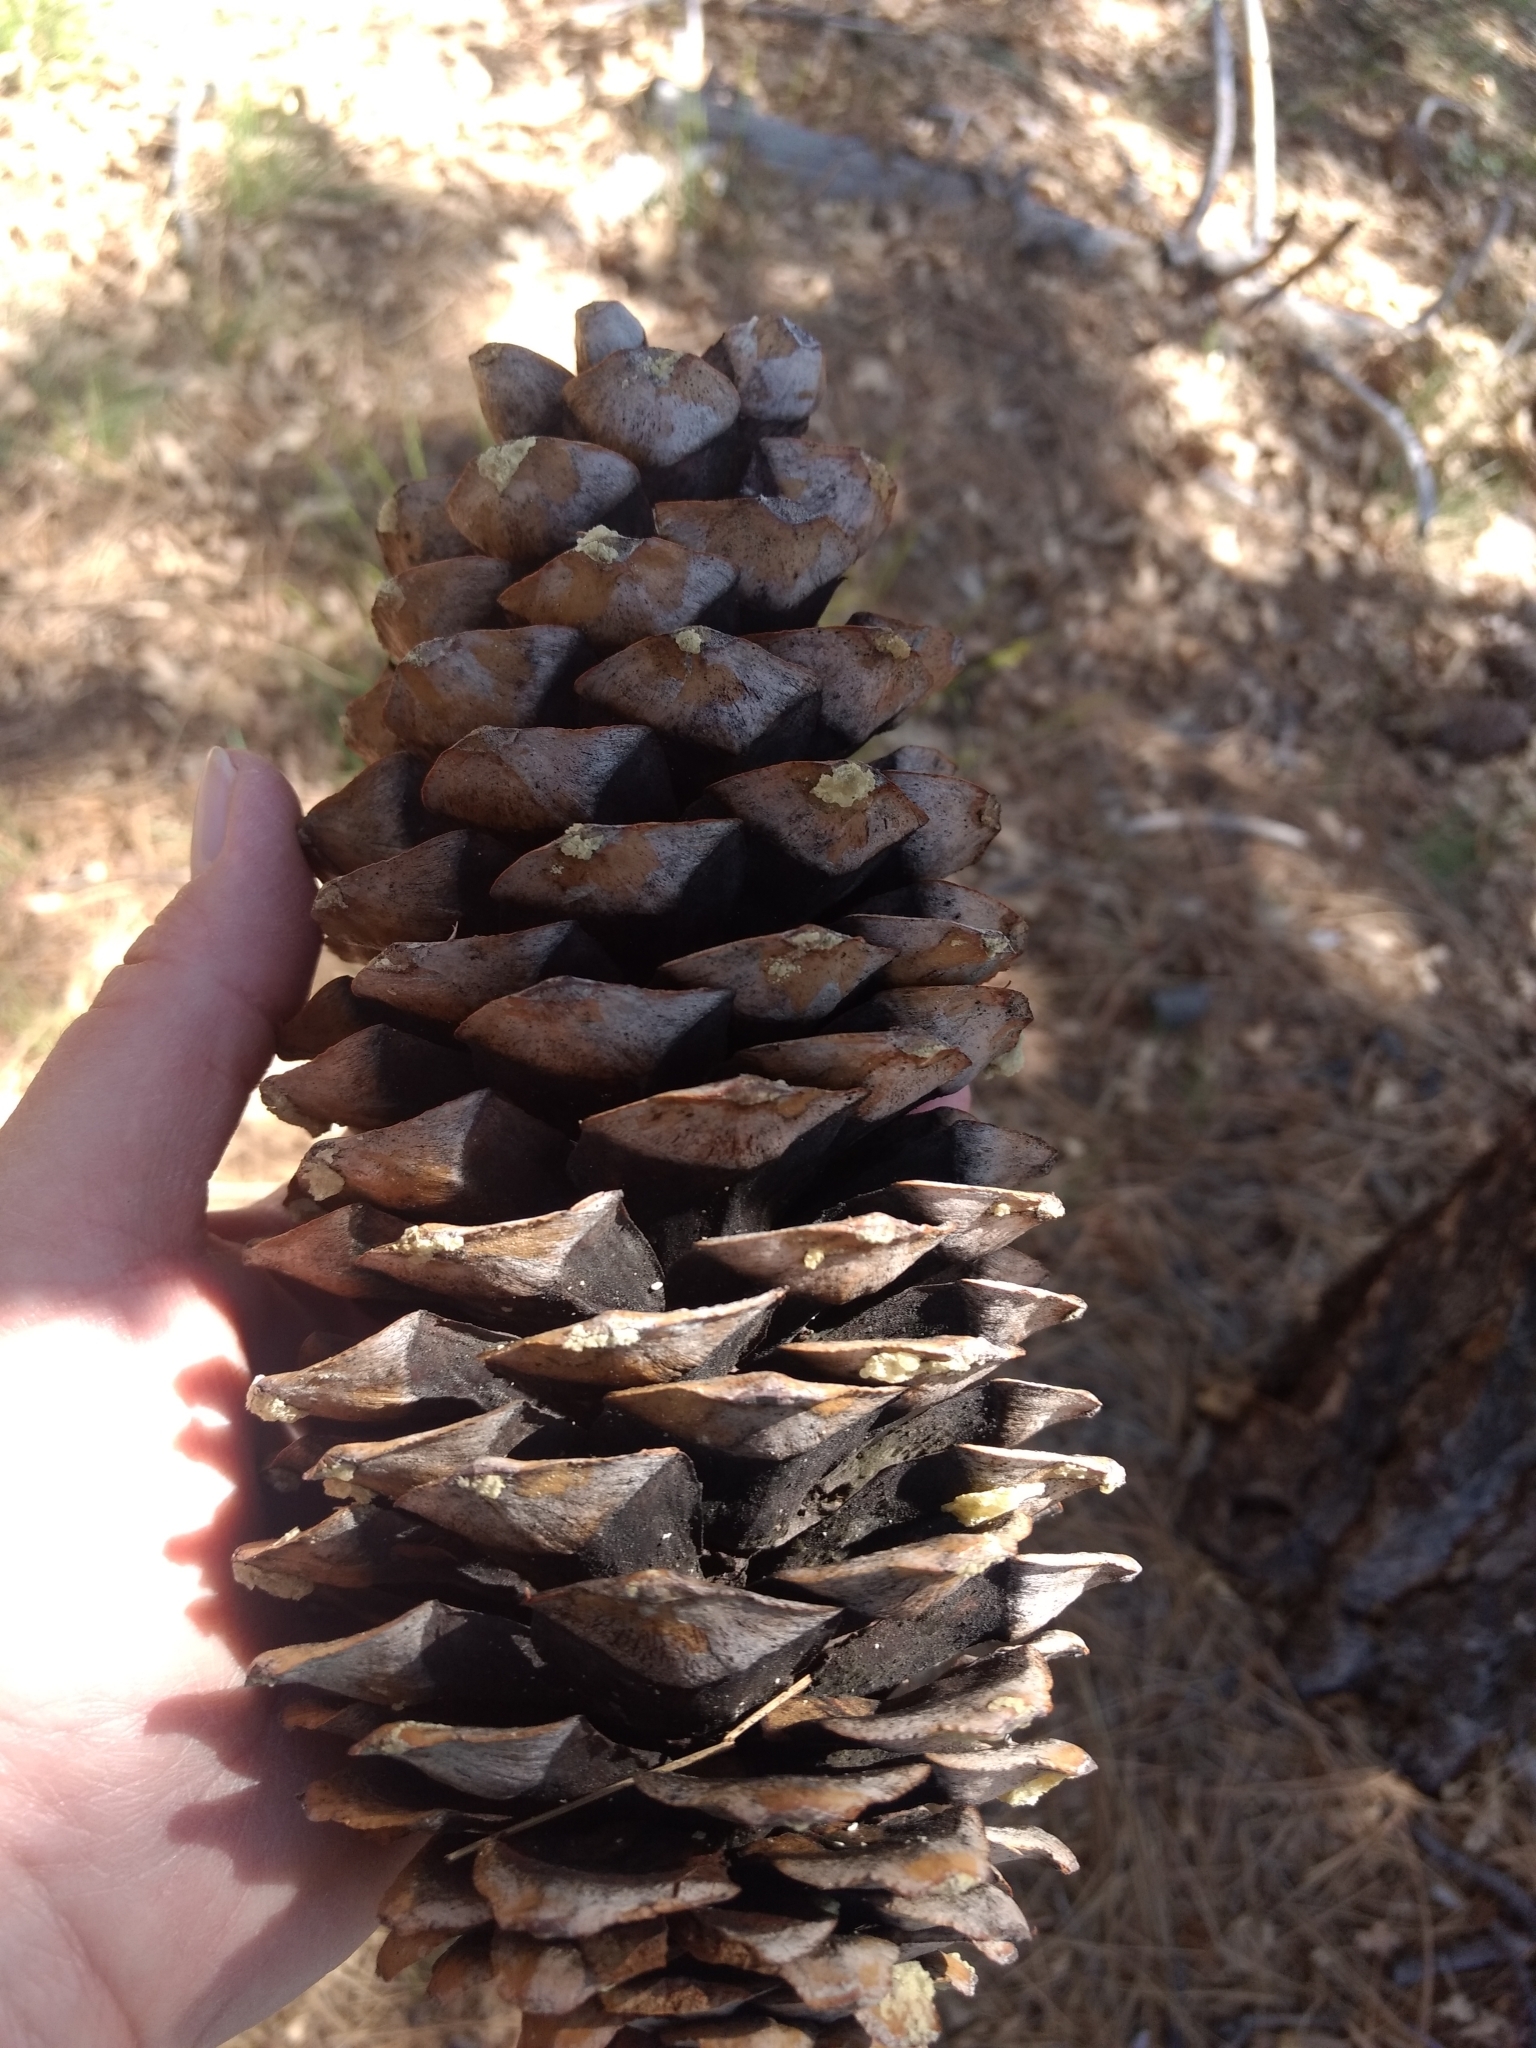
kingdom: Plantae
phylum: Tracheophyta
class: Pinopsida
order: Pinales
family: Pinaceae
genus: Pinus
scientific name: Pinus lambertiana
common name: Sugar pine
